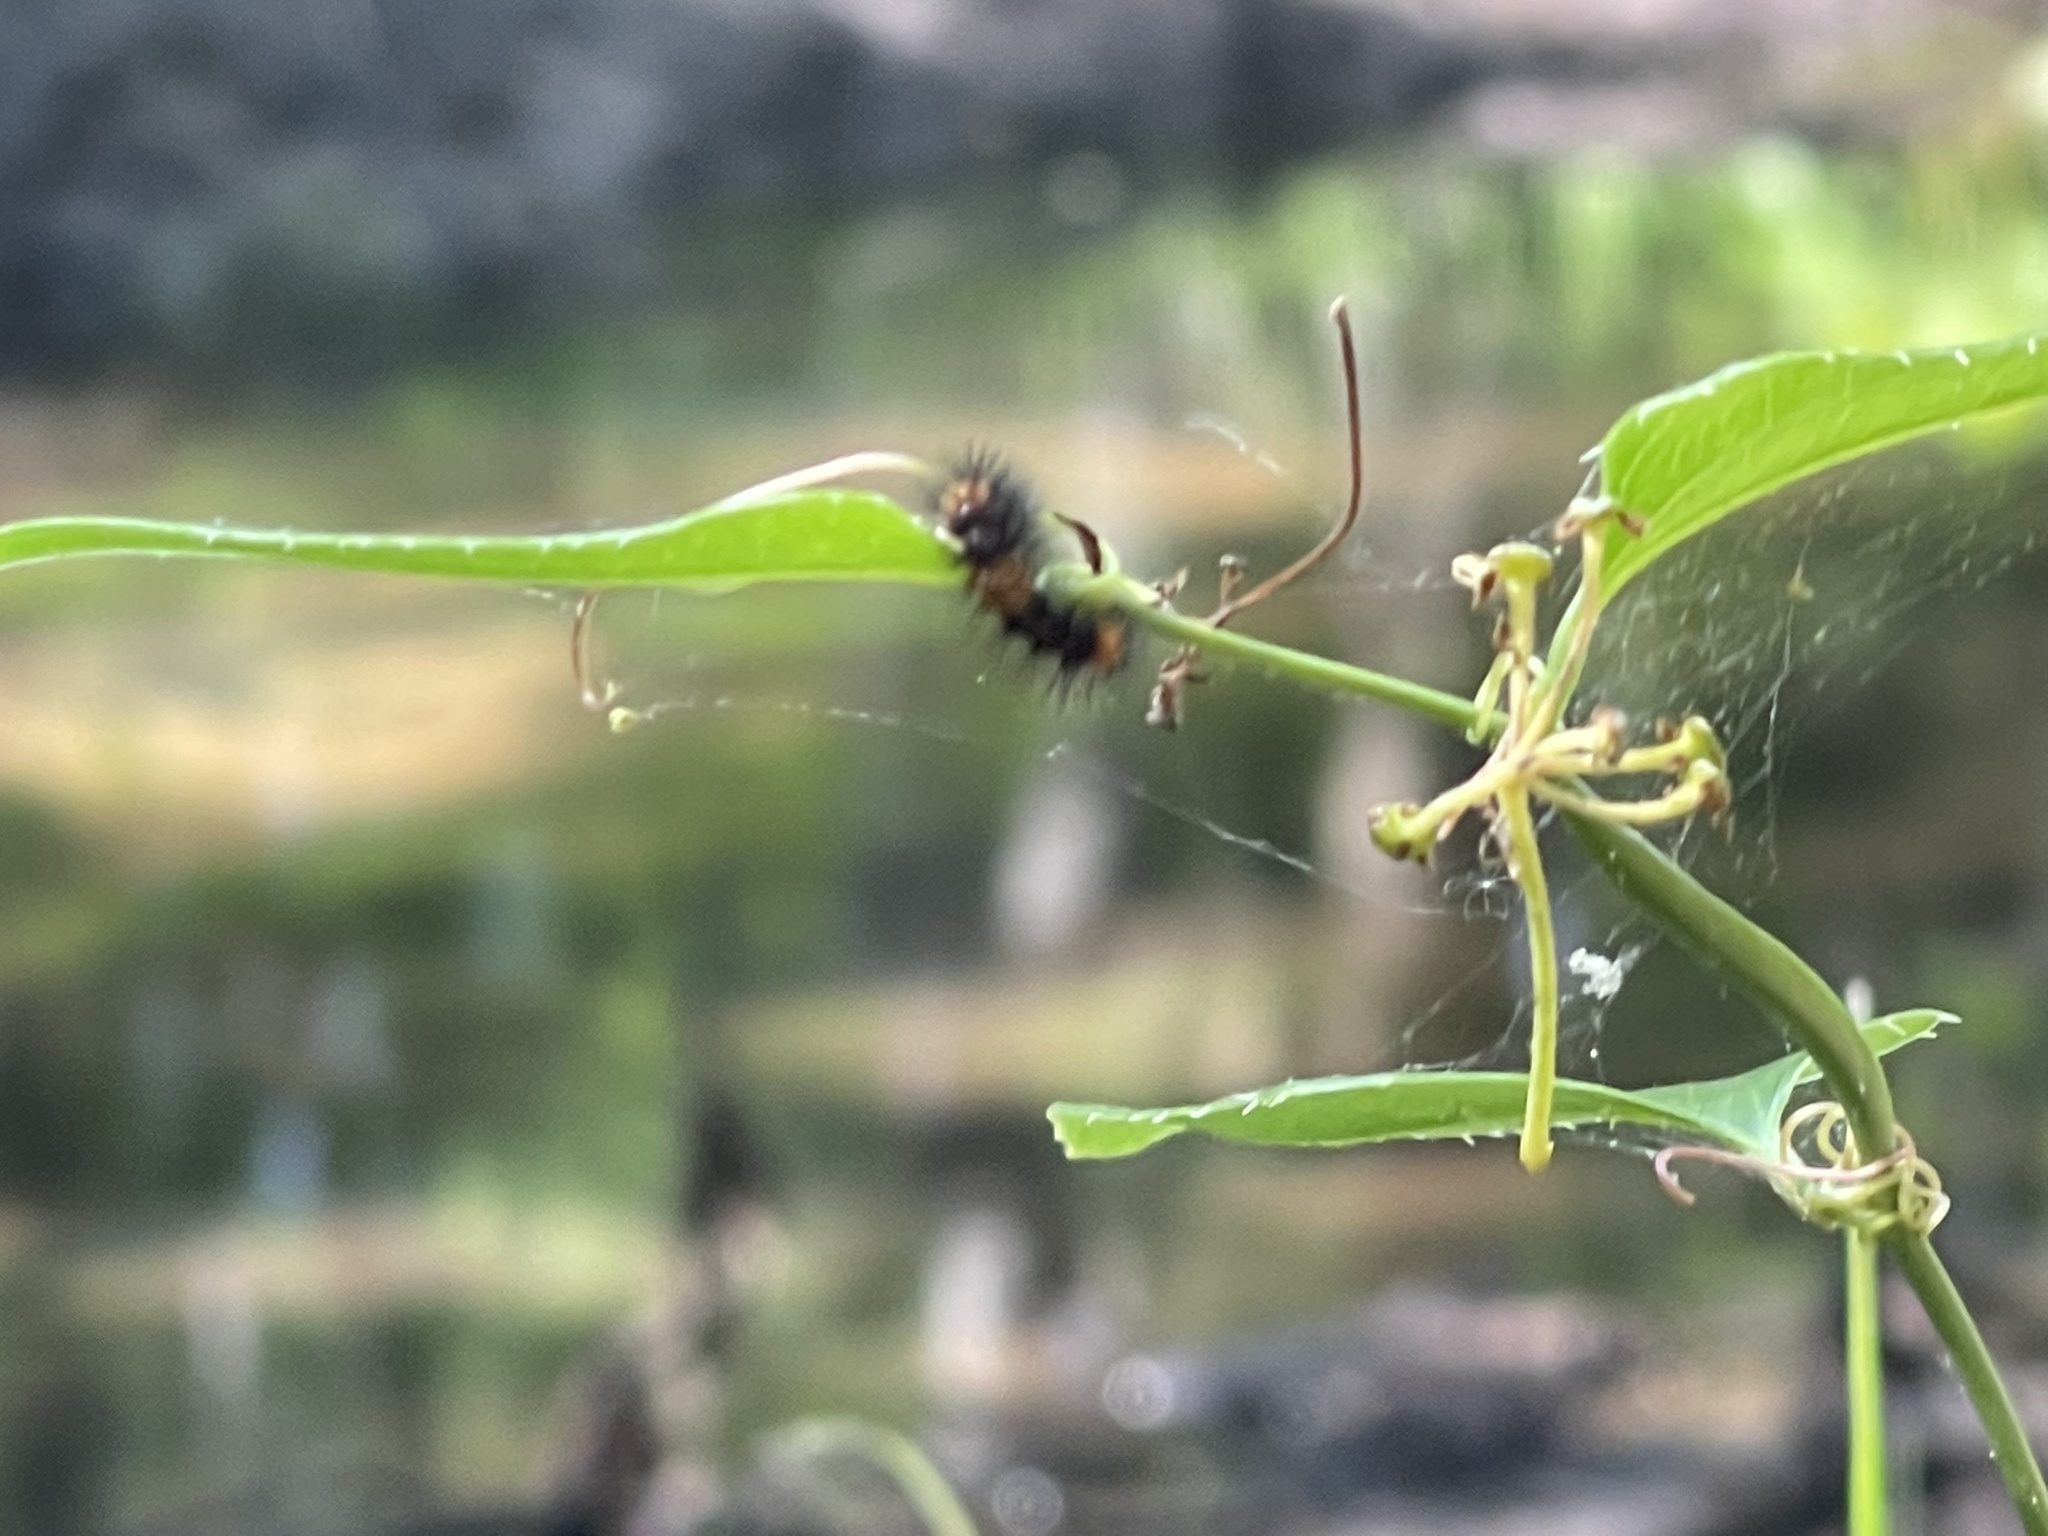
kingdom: Animalia
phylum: Arthropoda
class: Insecta
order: Lepidoptera
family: Erebidae
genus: Hypercompe
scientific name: Hypercompe scribonia
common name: Giant leopard moth
